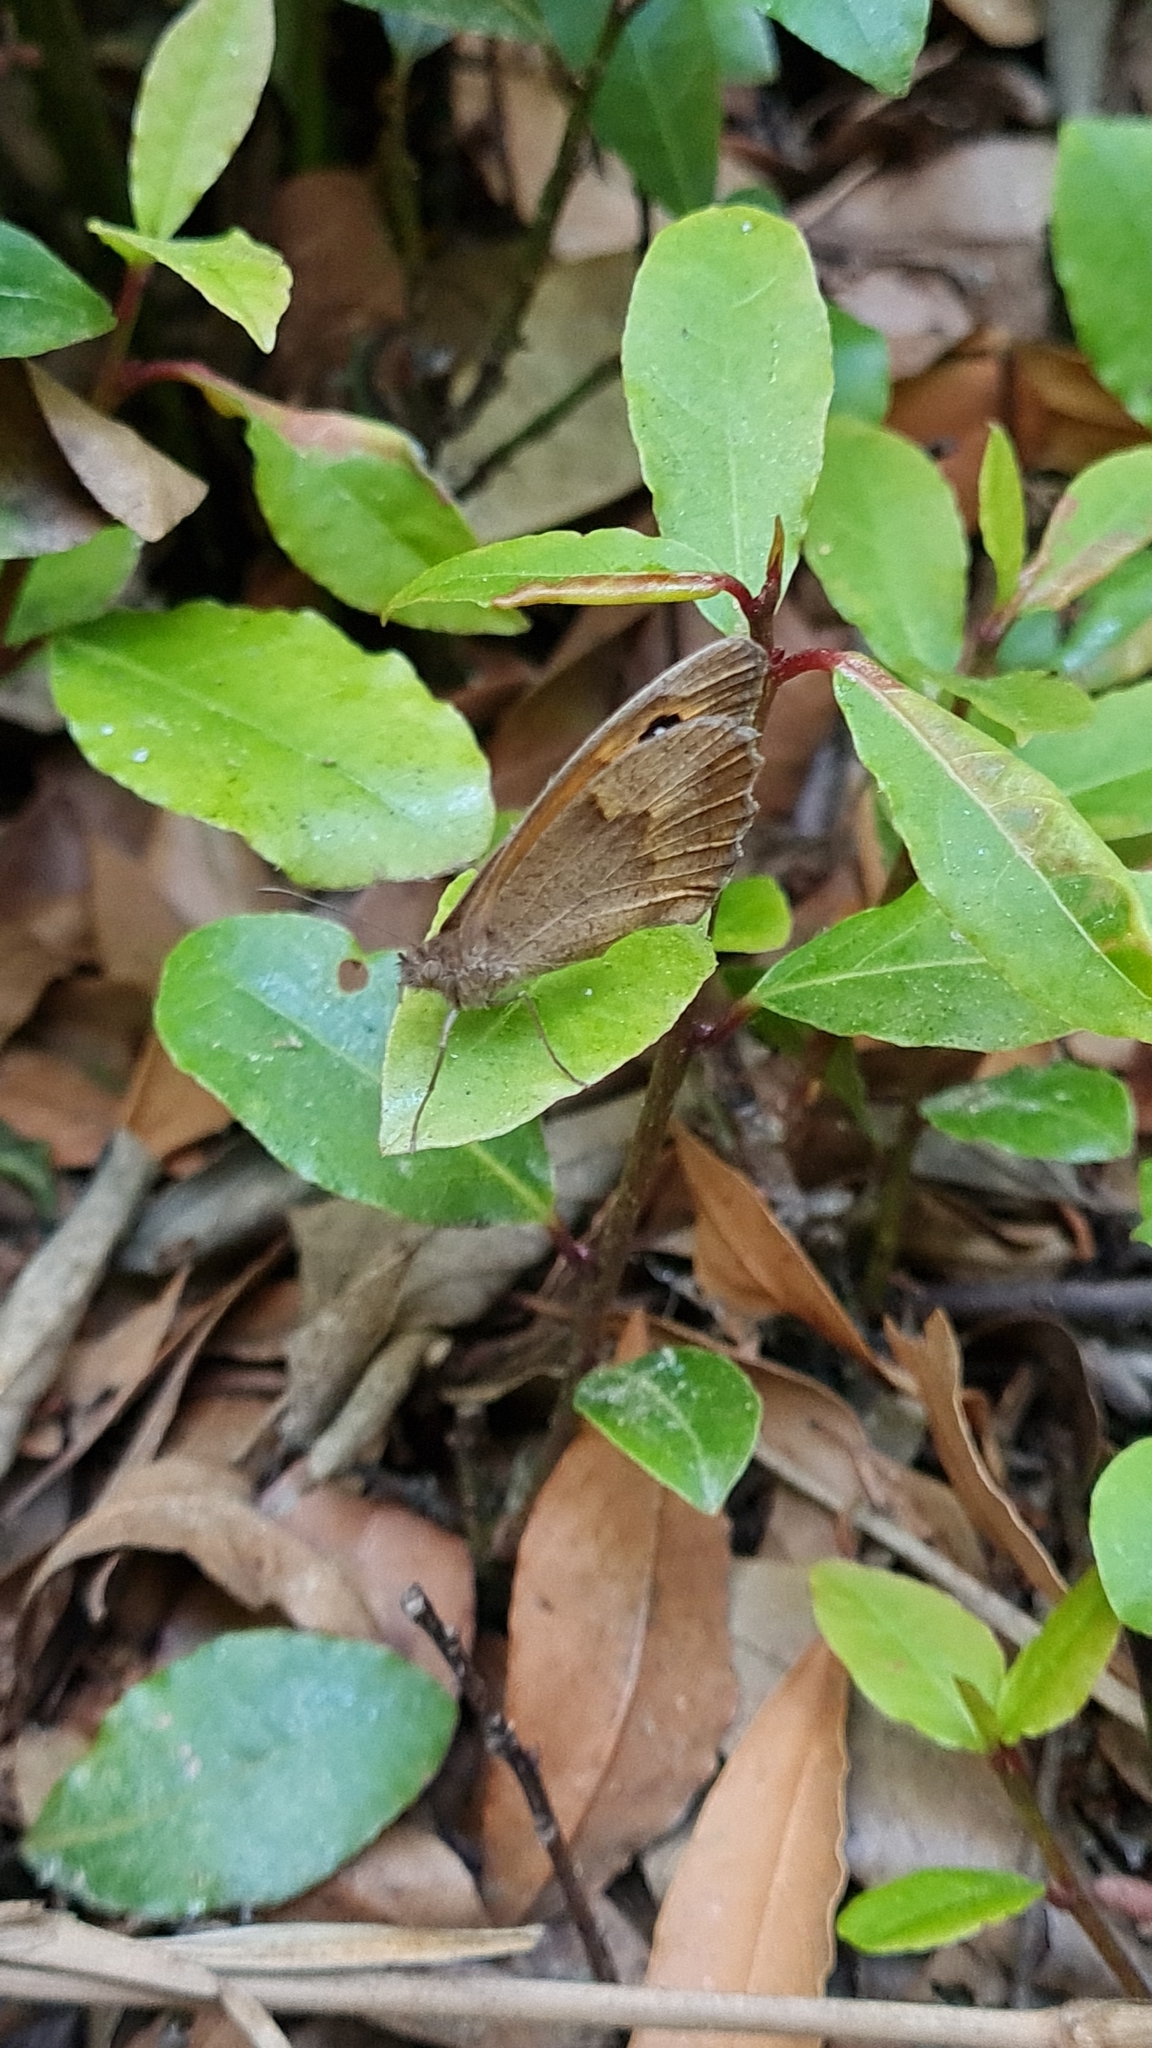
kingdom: Animalia
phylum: Arthropoda
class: Insecta
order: Lepidoptera
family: Nymphalidae
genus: Maniola
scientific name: Maniola jurtina
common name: Meadow brown
